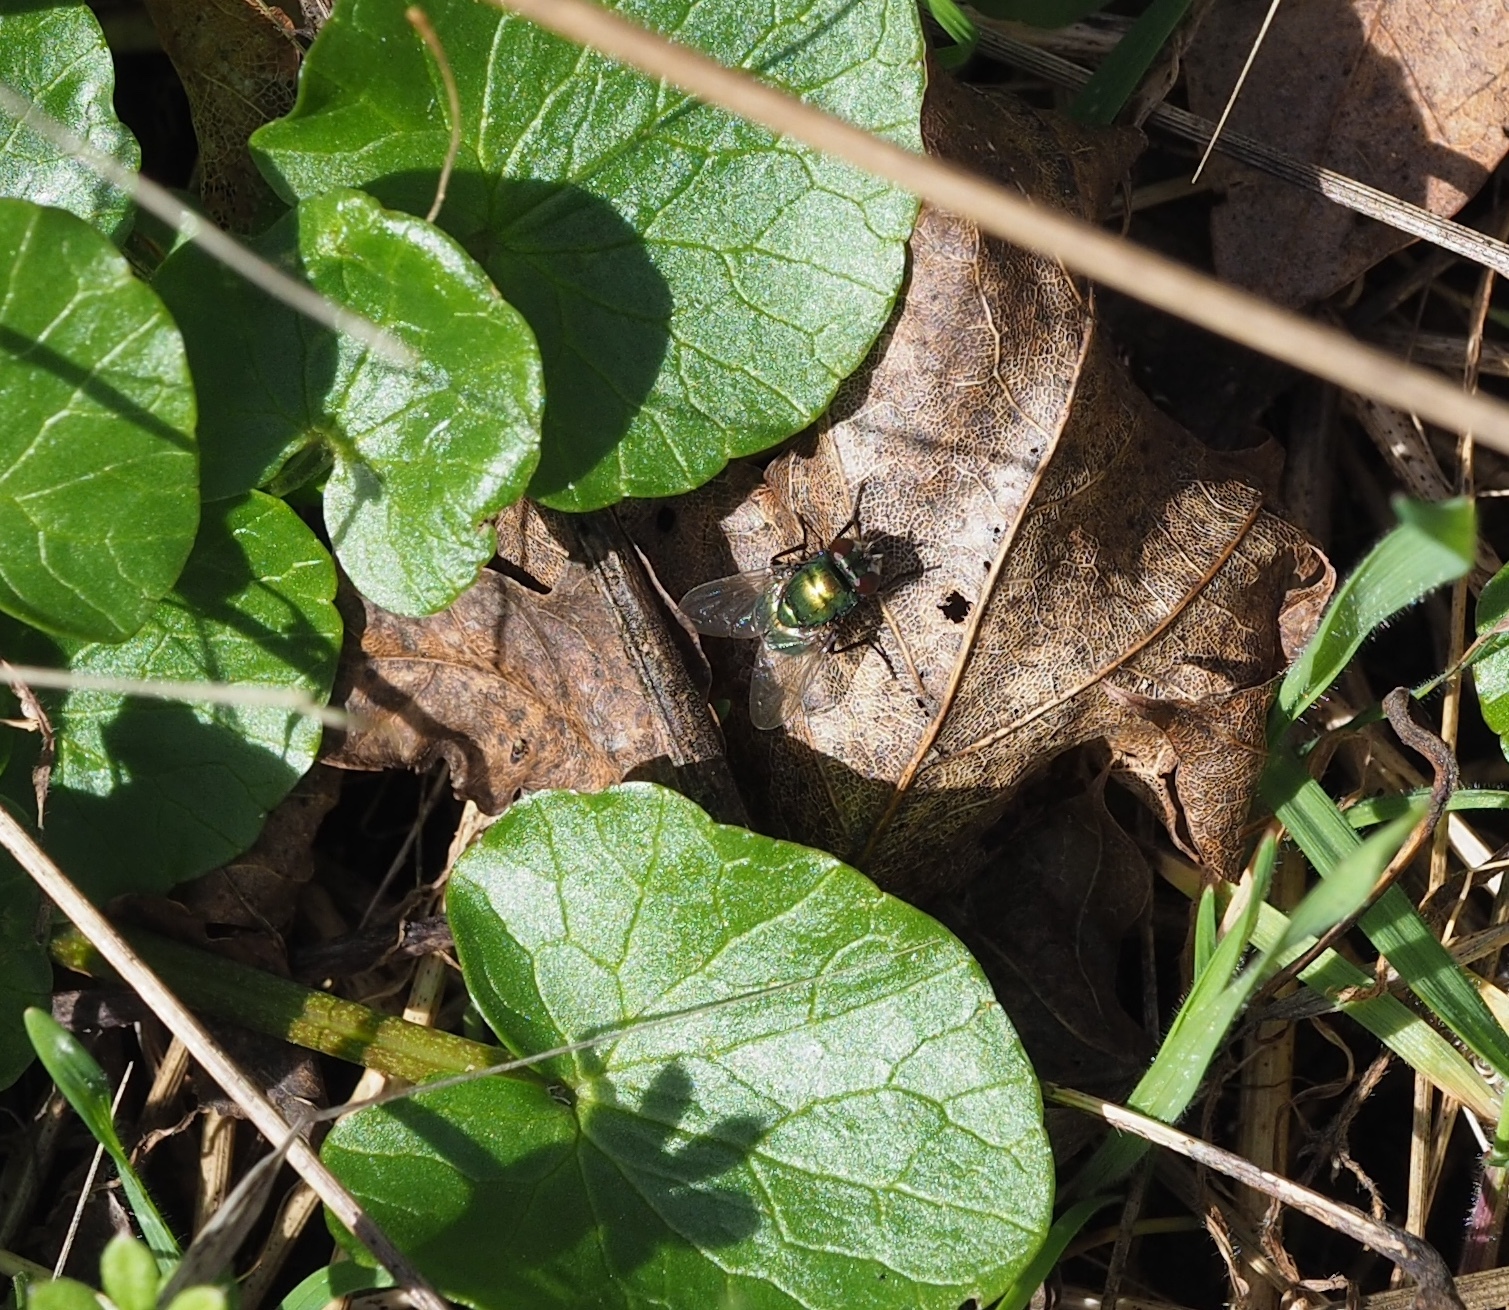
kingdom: Animalia
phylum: Arthropoda
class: Insecta
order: Diptera
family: Muscidae
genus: Neomyia
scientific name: Neomyia cornicina
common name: House fly
